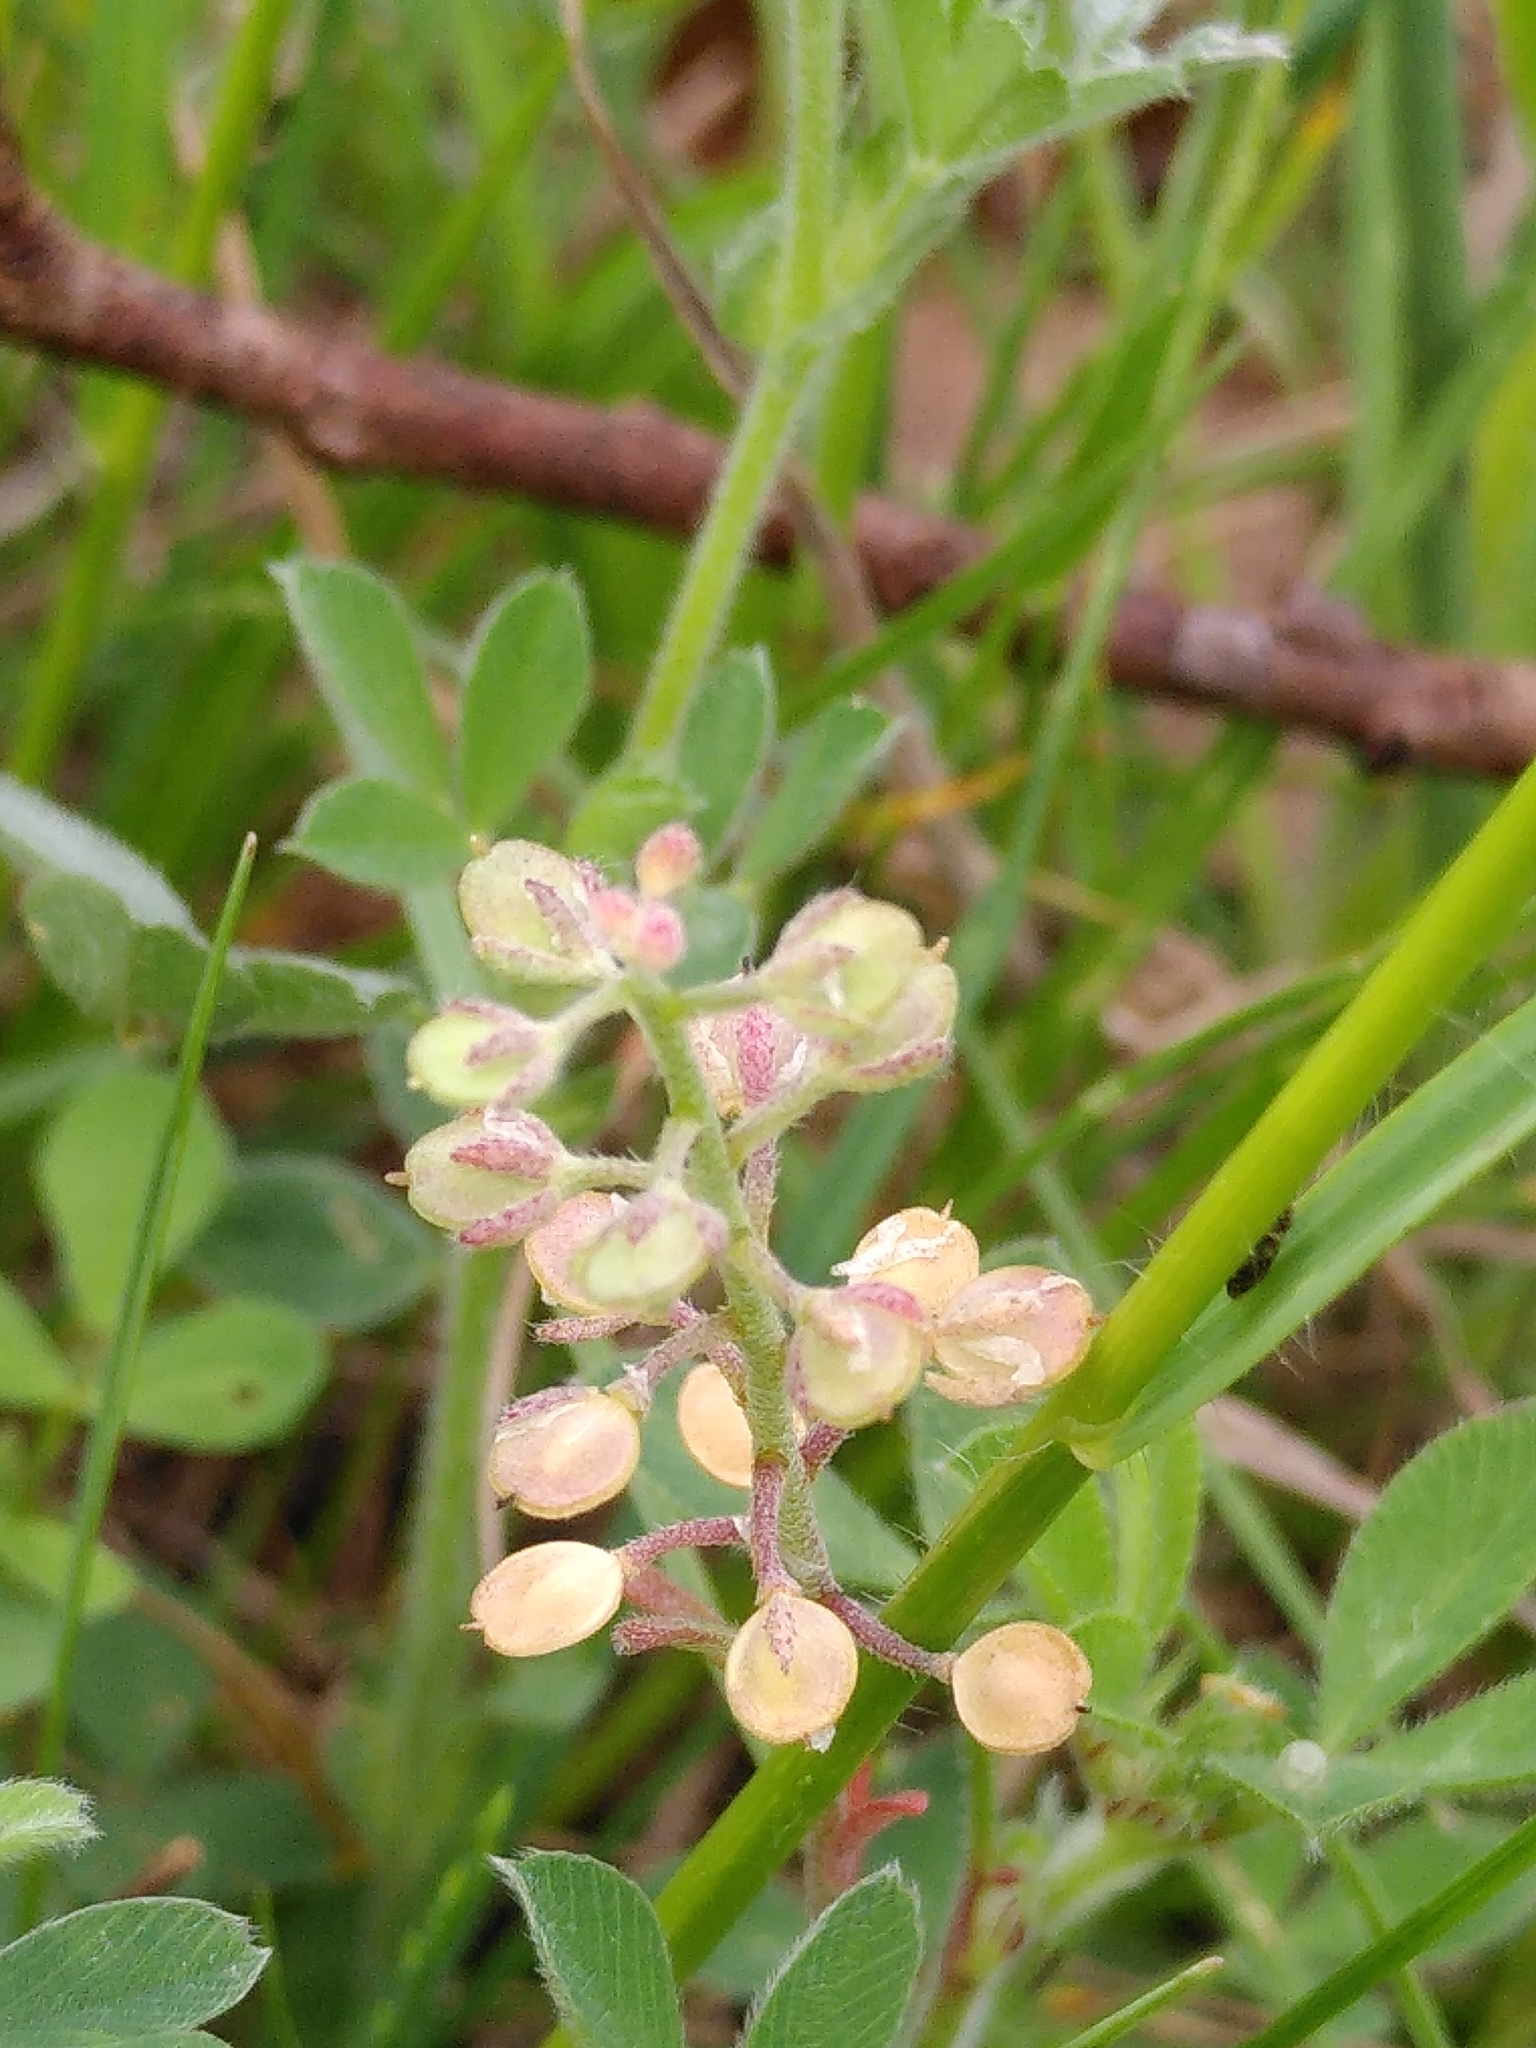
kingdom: Plantae
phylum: Tracheophyta
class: Magnoliopsida
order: Brassicales
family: Brassicaceae
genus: Alyssum
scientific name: Alyssum alyssoides
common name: Small alison
